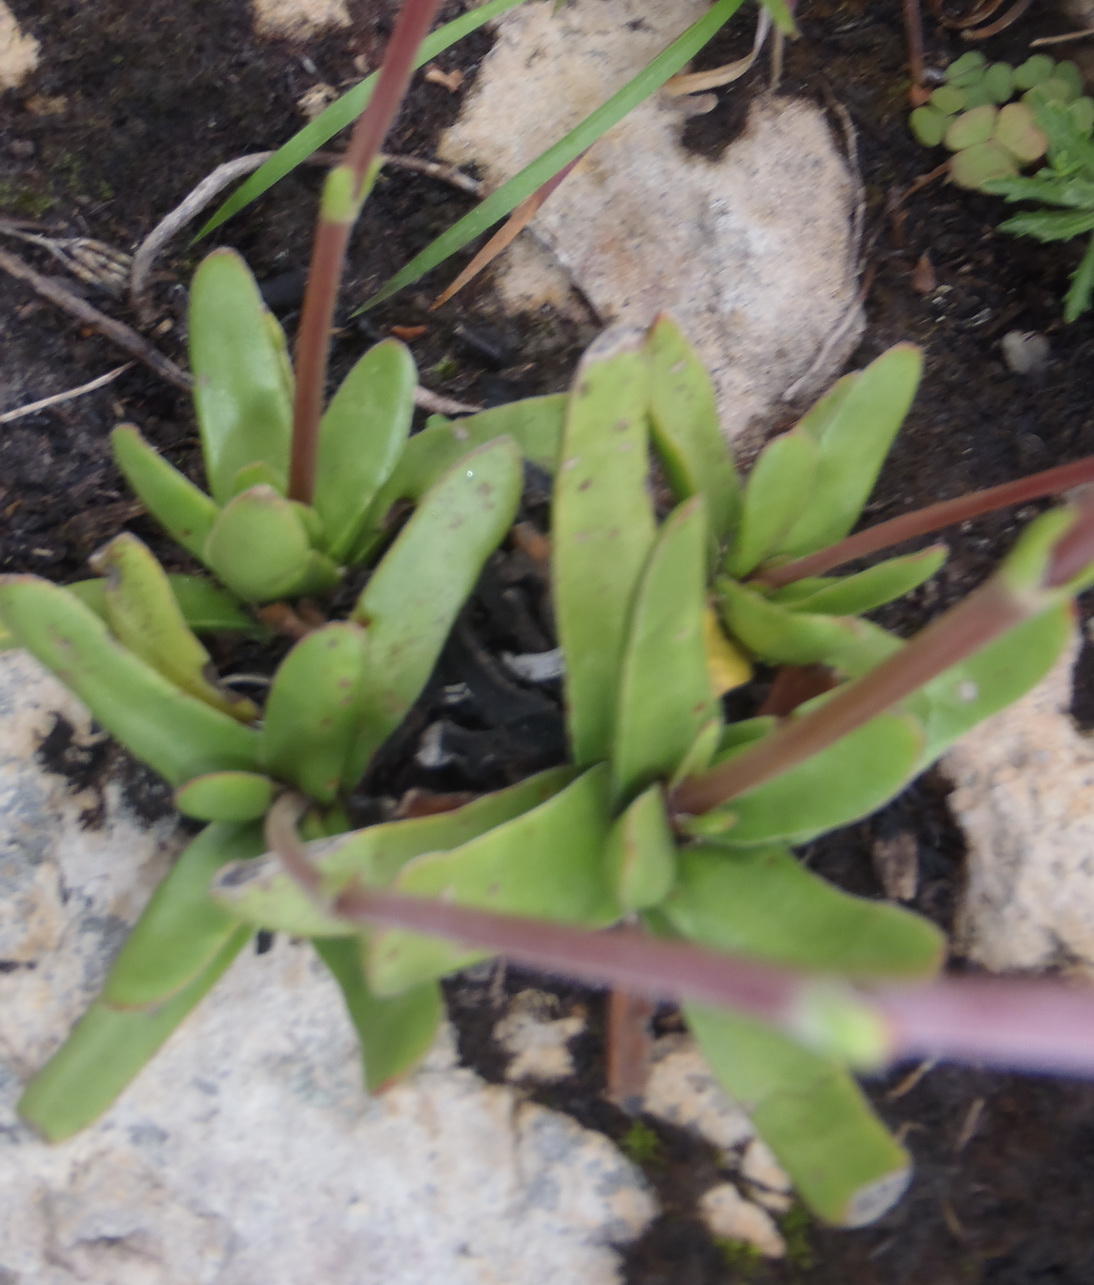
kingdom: Plantae
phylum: Tracheophyta
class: Magnoliopsida
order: Saxifragales
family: Crassulaceae
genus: Crassula
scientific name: Crassula nudicaulis
